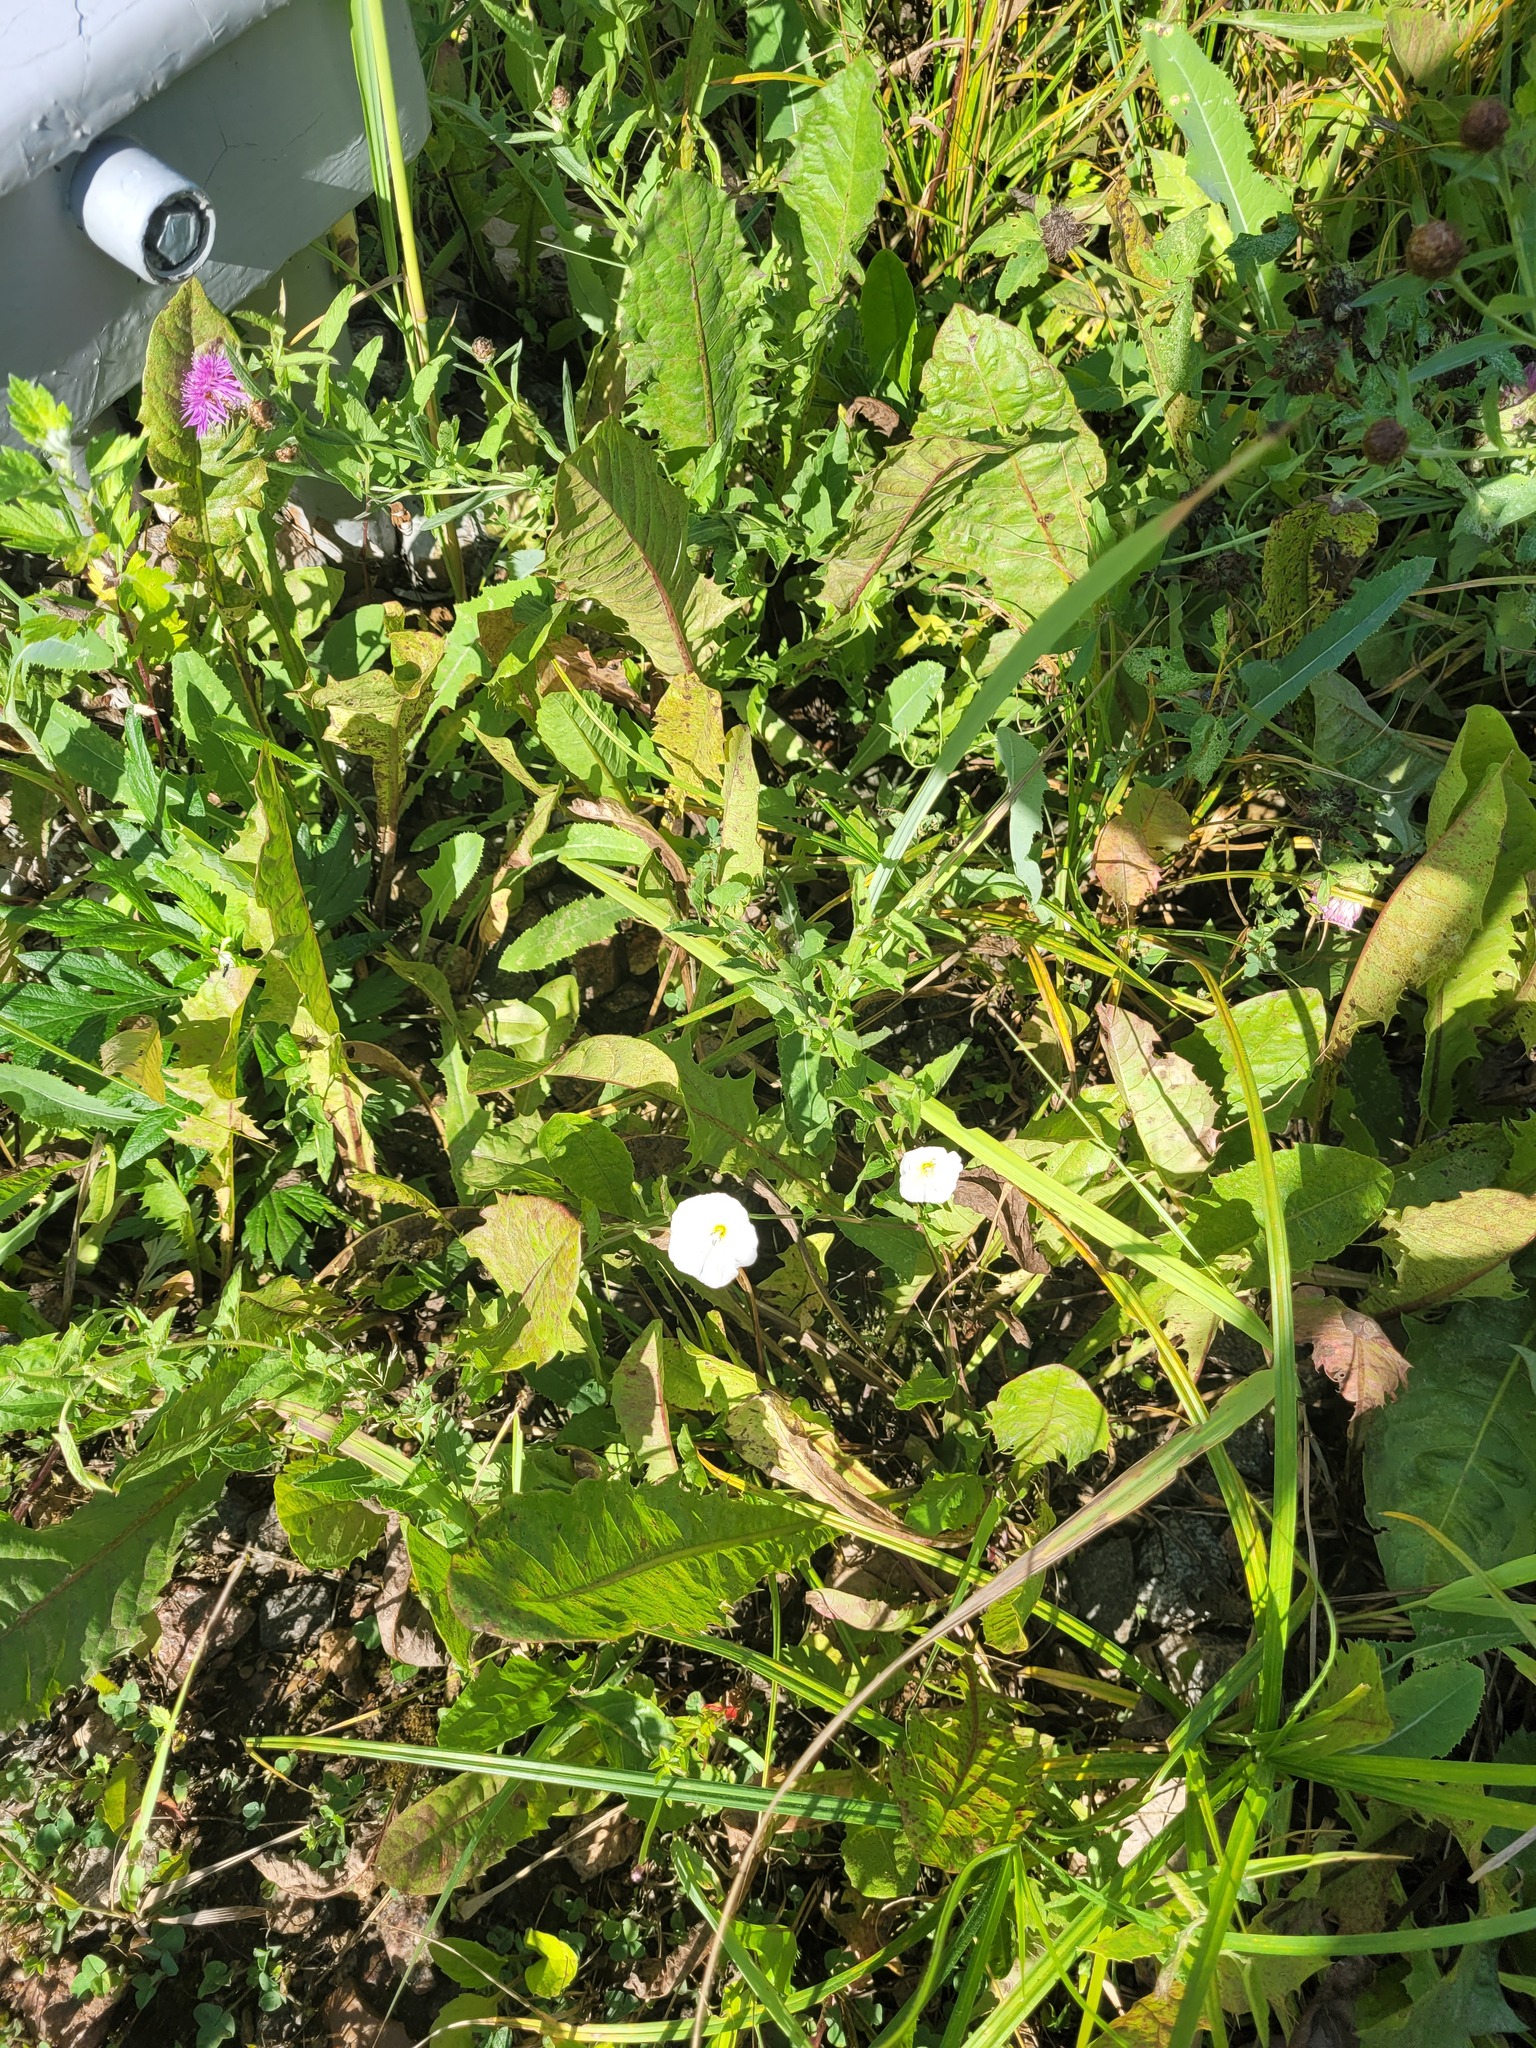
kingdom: Plantae
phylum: Tracheophyta
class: Magnoliopsida
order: Solanales
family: Convolvulaceae
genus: Convolvulus
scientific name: Convolvulus arvensis
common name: Field bindweed
